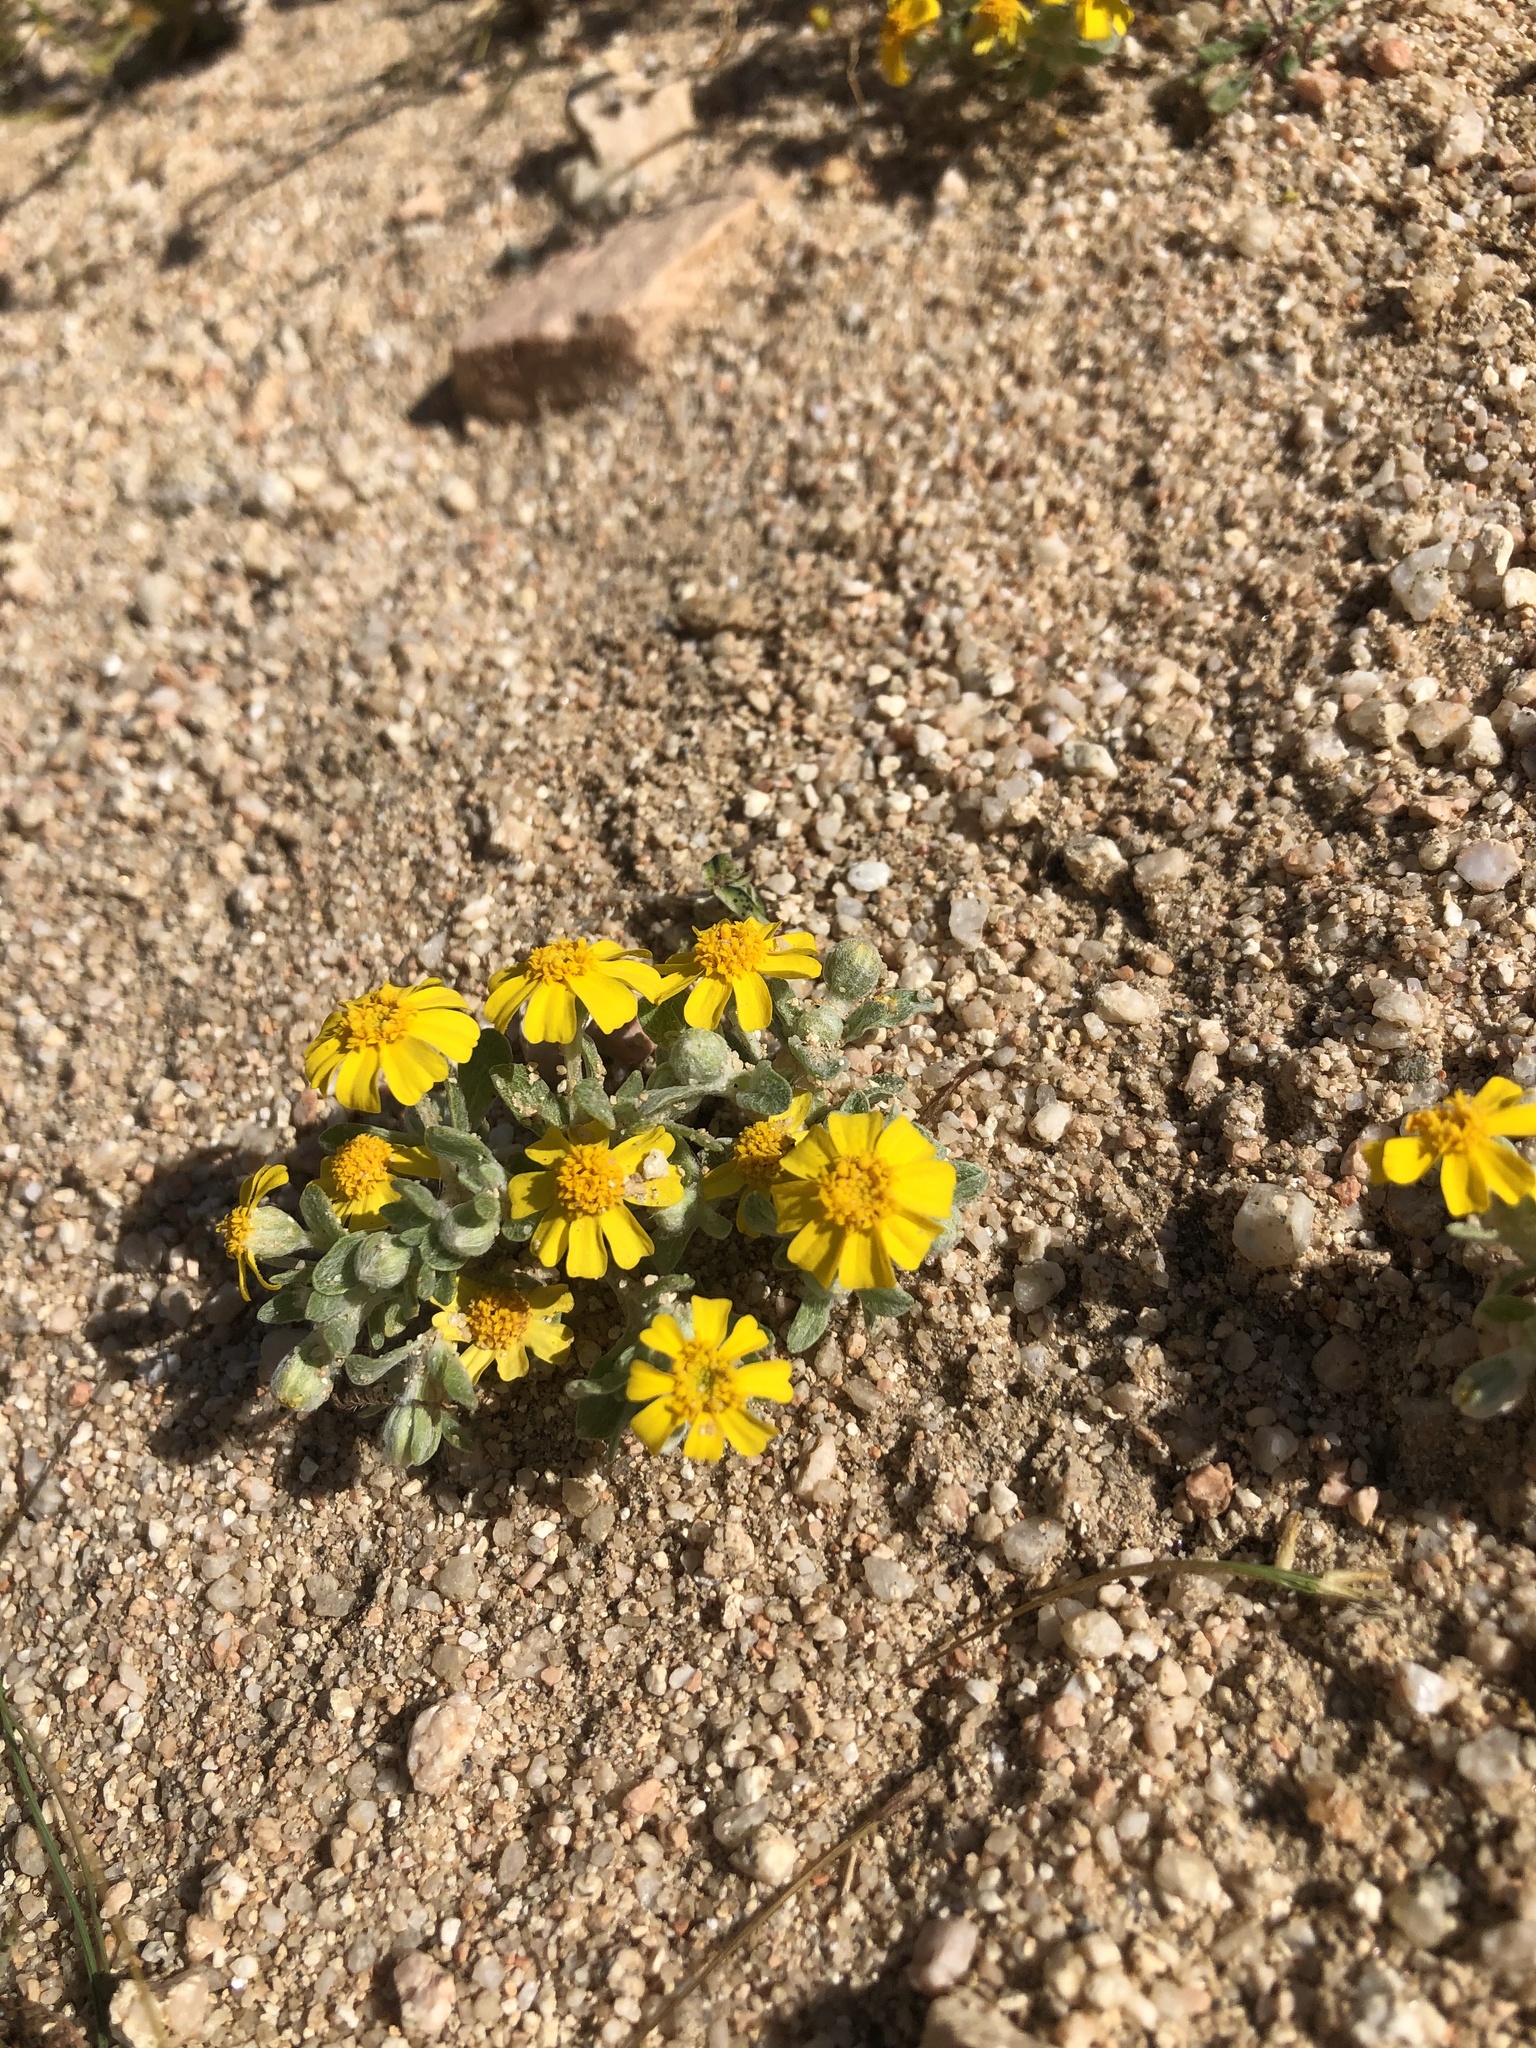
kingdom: Plantae
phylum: Tracheophyta
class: Magnoliopsida
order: Asterales
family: Asteraceae
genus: Eriophyllum
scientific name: Eriophyllum wallacei
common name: Wallace's woolly daisy
